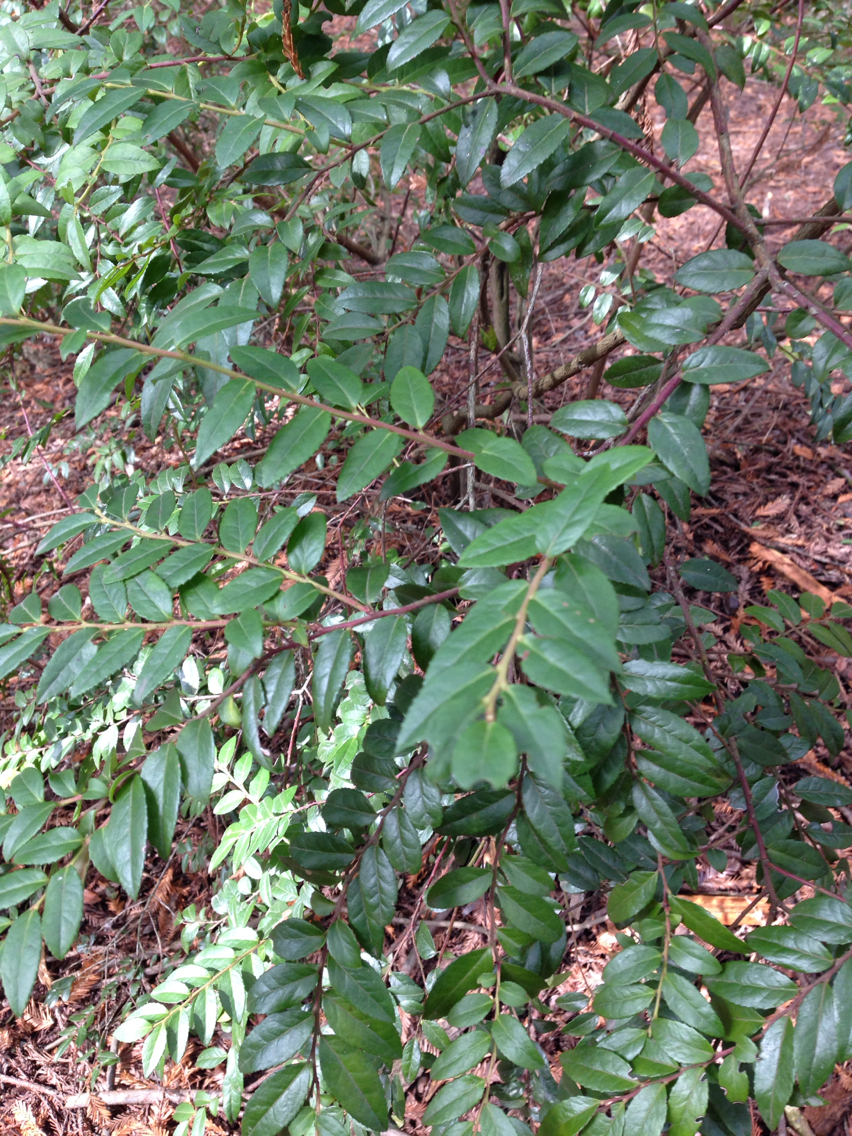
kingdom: Plantae
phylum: Tracheophyta
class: Magnoliopsida
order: Ericales
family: Ericaceae
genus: Vaccinium
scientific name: Vaccinium ovatum
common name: California-huckleberry
